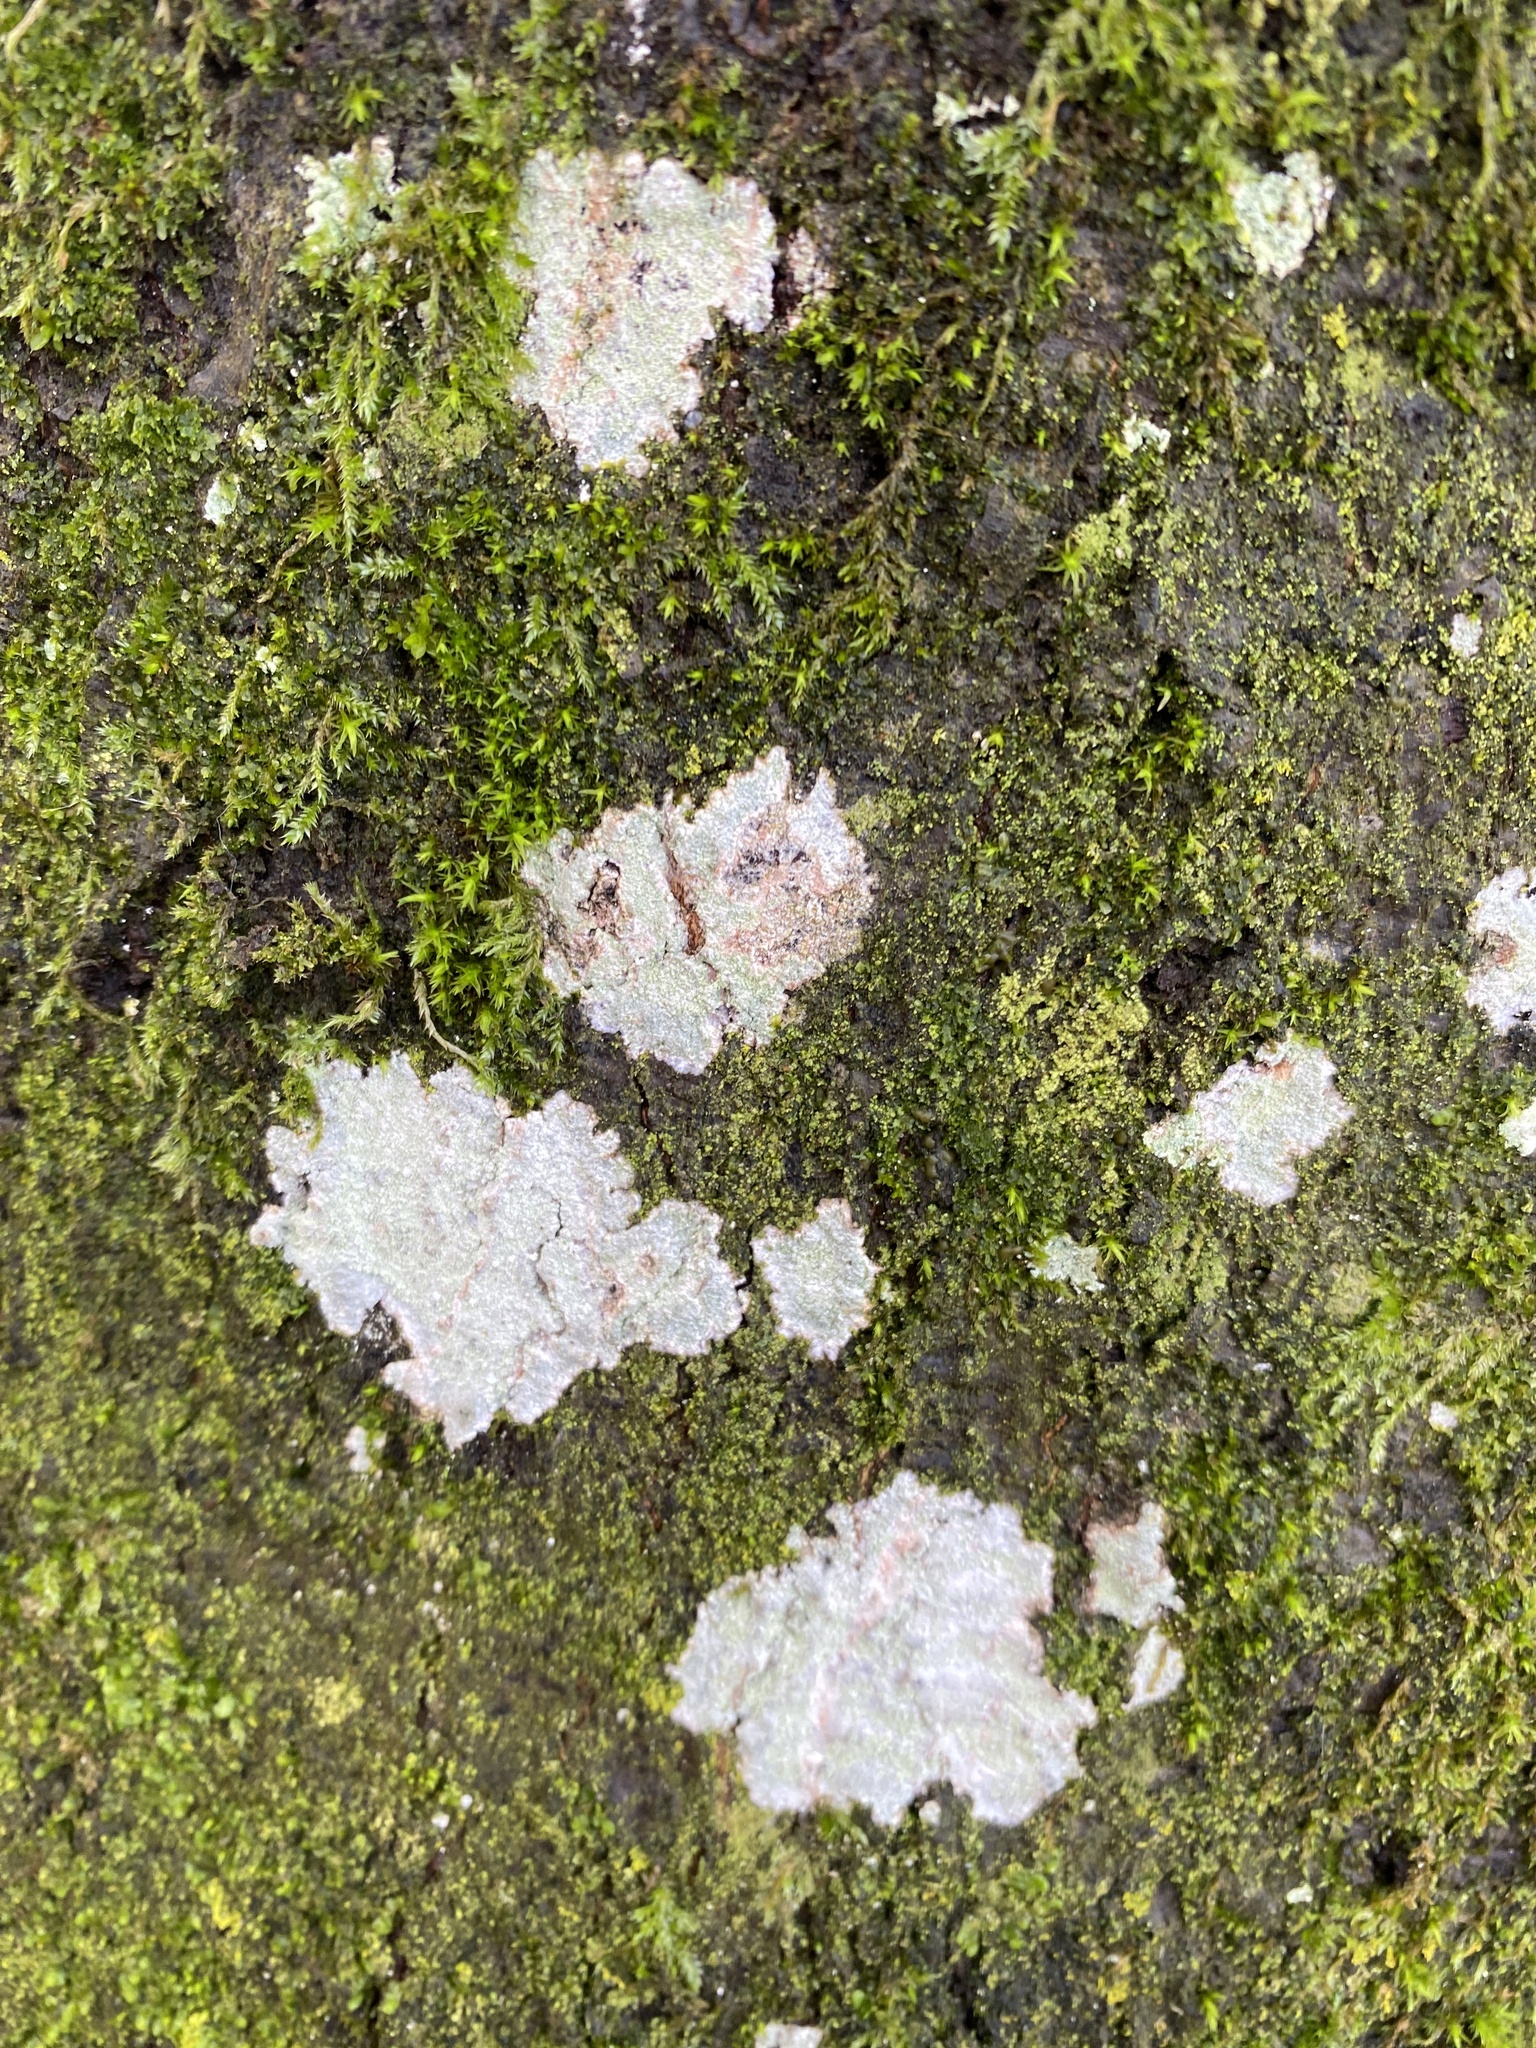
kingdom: Fungi
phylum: Ascomycota
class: Lecanoromycetes
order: Ostropales
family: Phlyctidaceae
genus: Phlyctis
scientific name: Phlyctis argena
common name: Whitewash lichen
